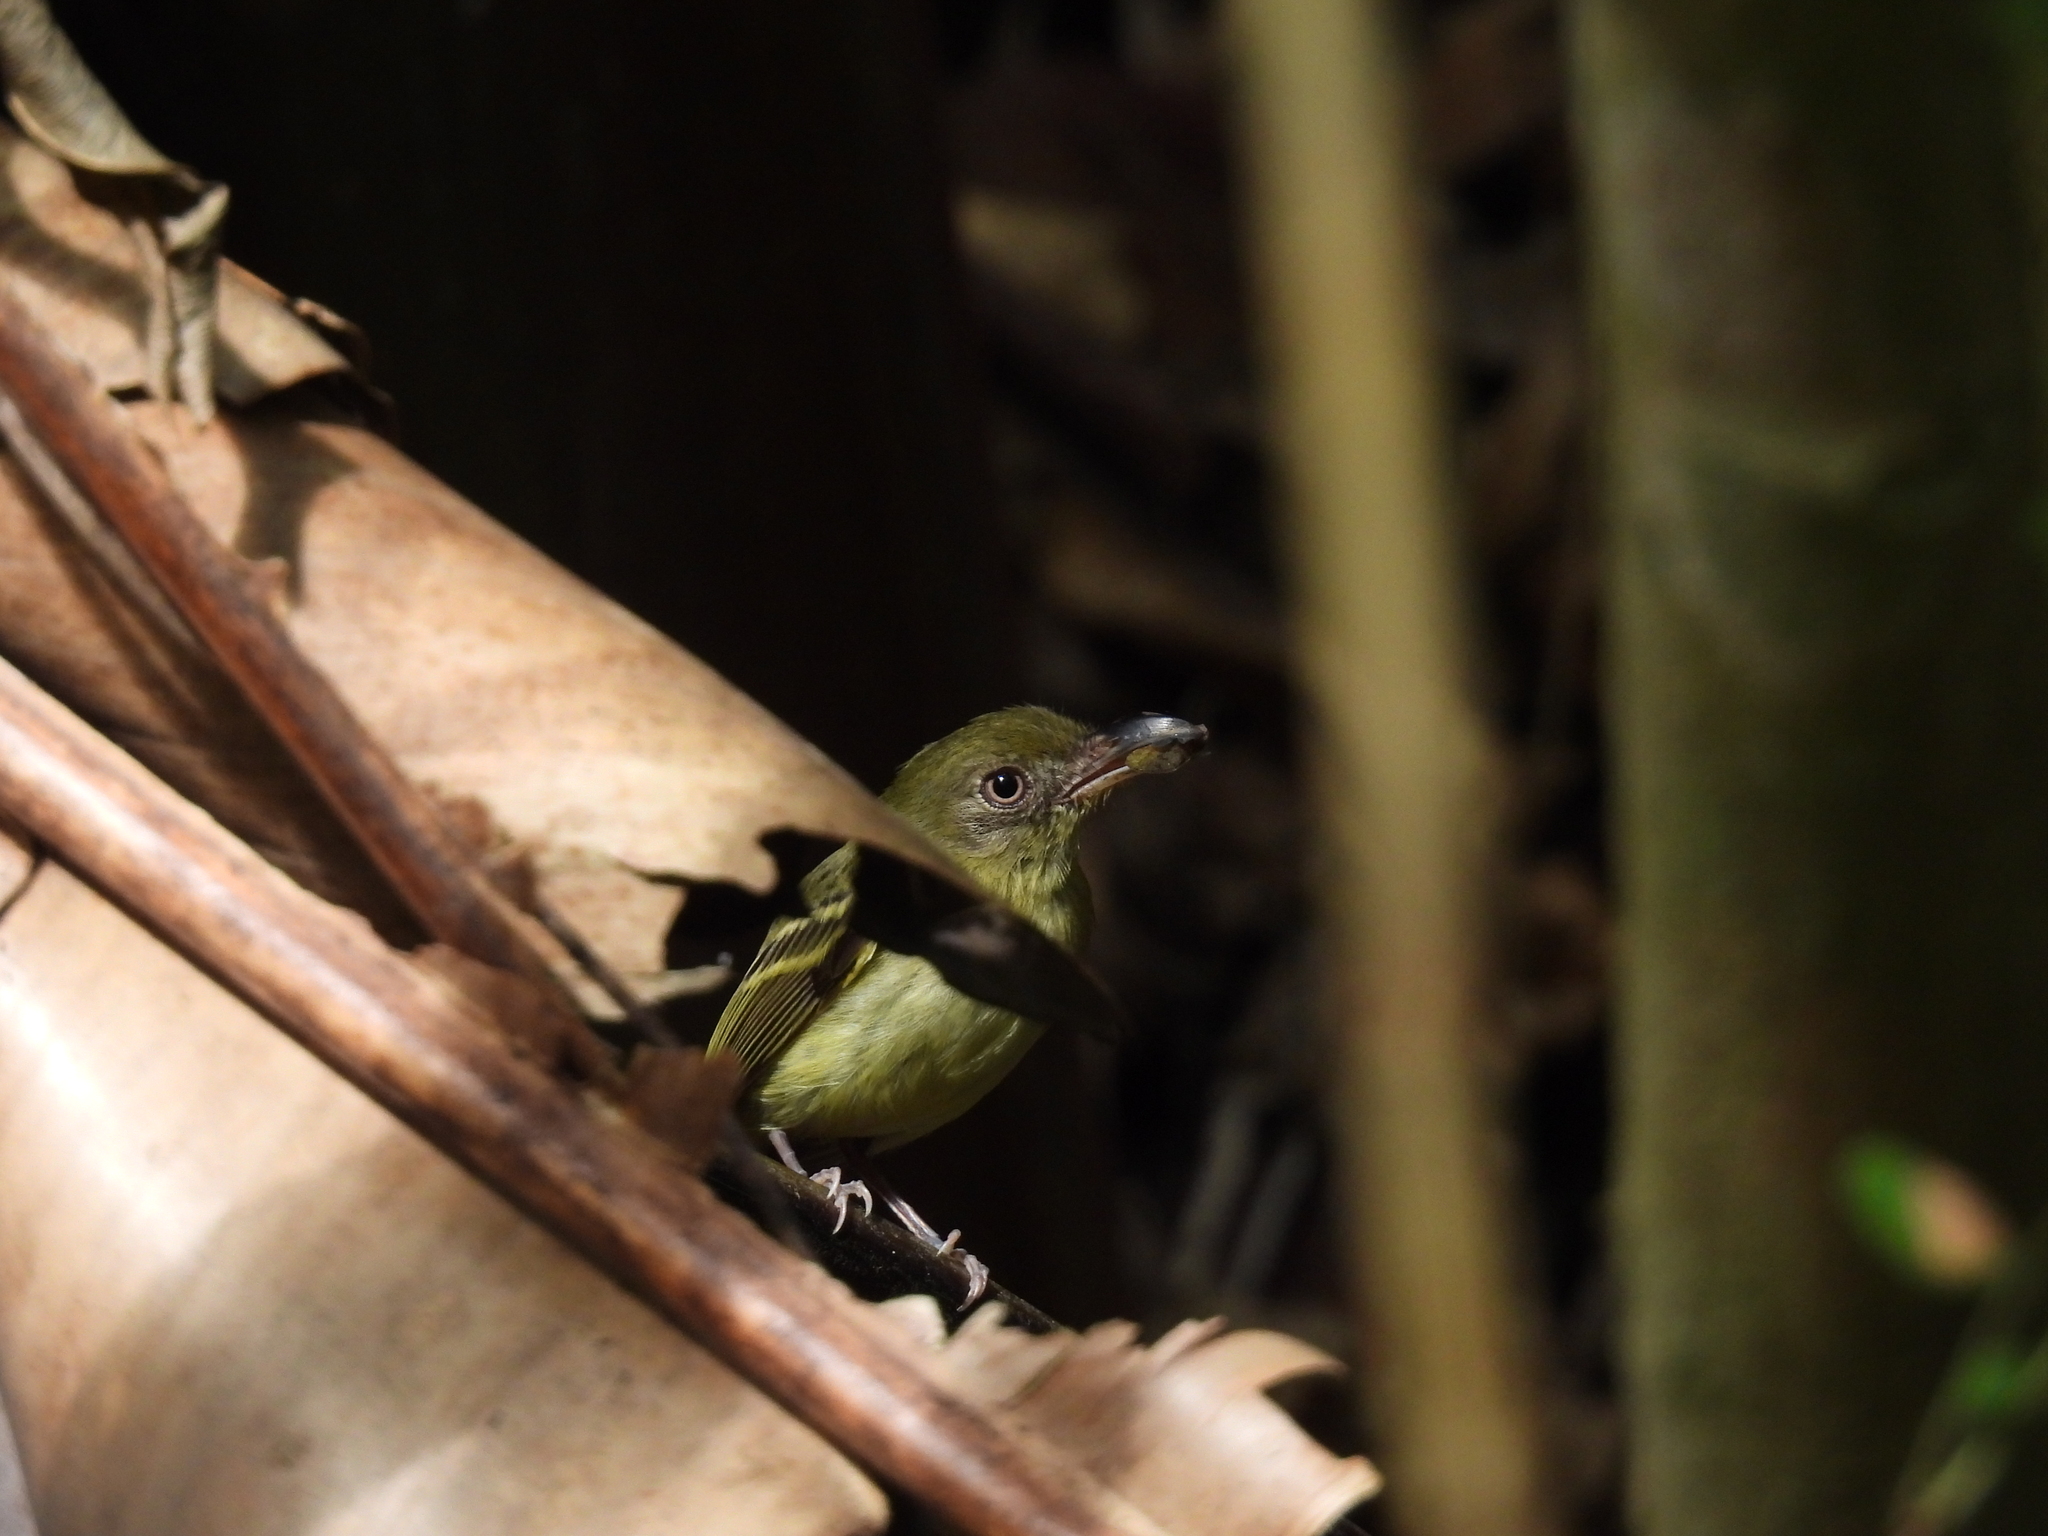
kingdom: Animalia
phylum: Chordata
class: Aves
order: Passeriformes
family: Tyrannidae
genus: Oncostoma
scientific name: Oncostoma olivaceum
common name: Southern bentbill
